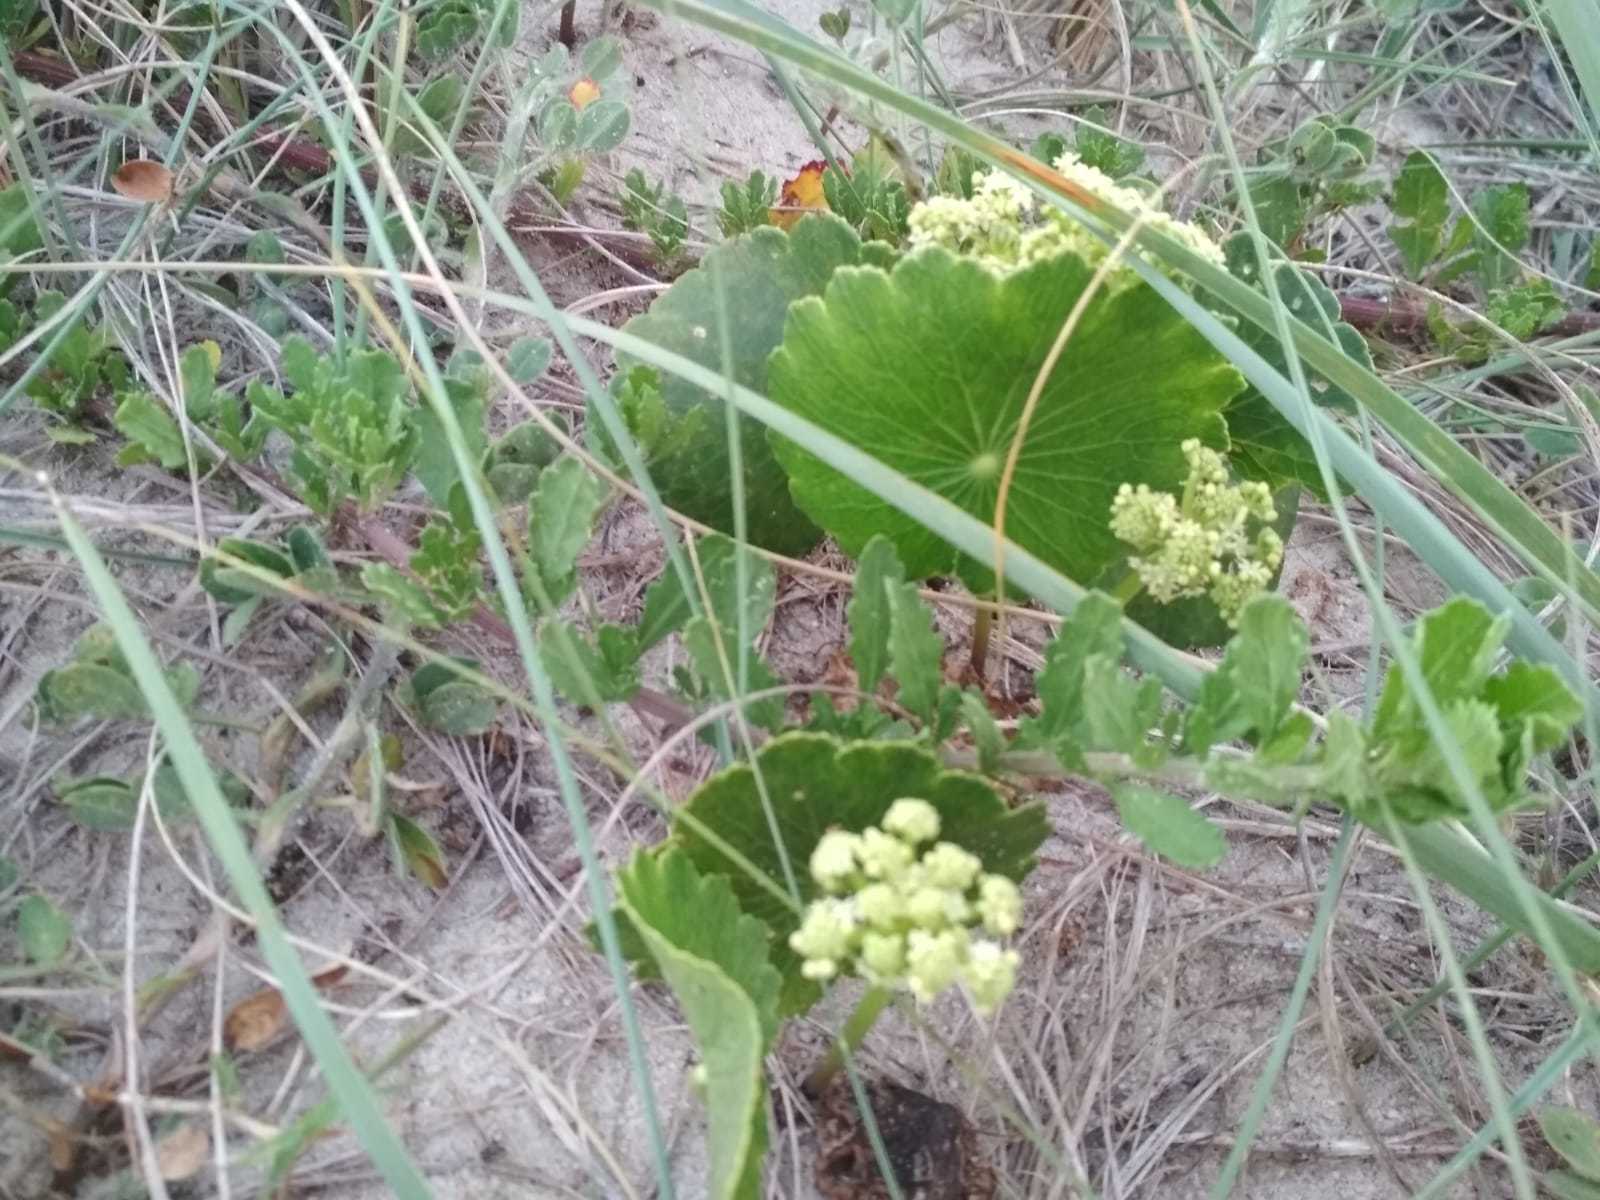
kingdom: Plantae
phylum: Tracheophyta
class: Magnoliopsida
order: Apiales
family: Araliaceae
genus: Hydrocotyle
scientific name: Hydrocotyle bonariensis
